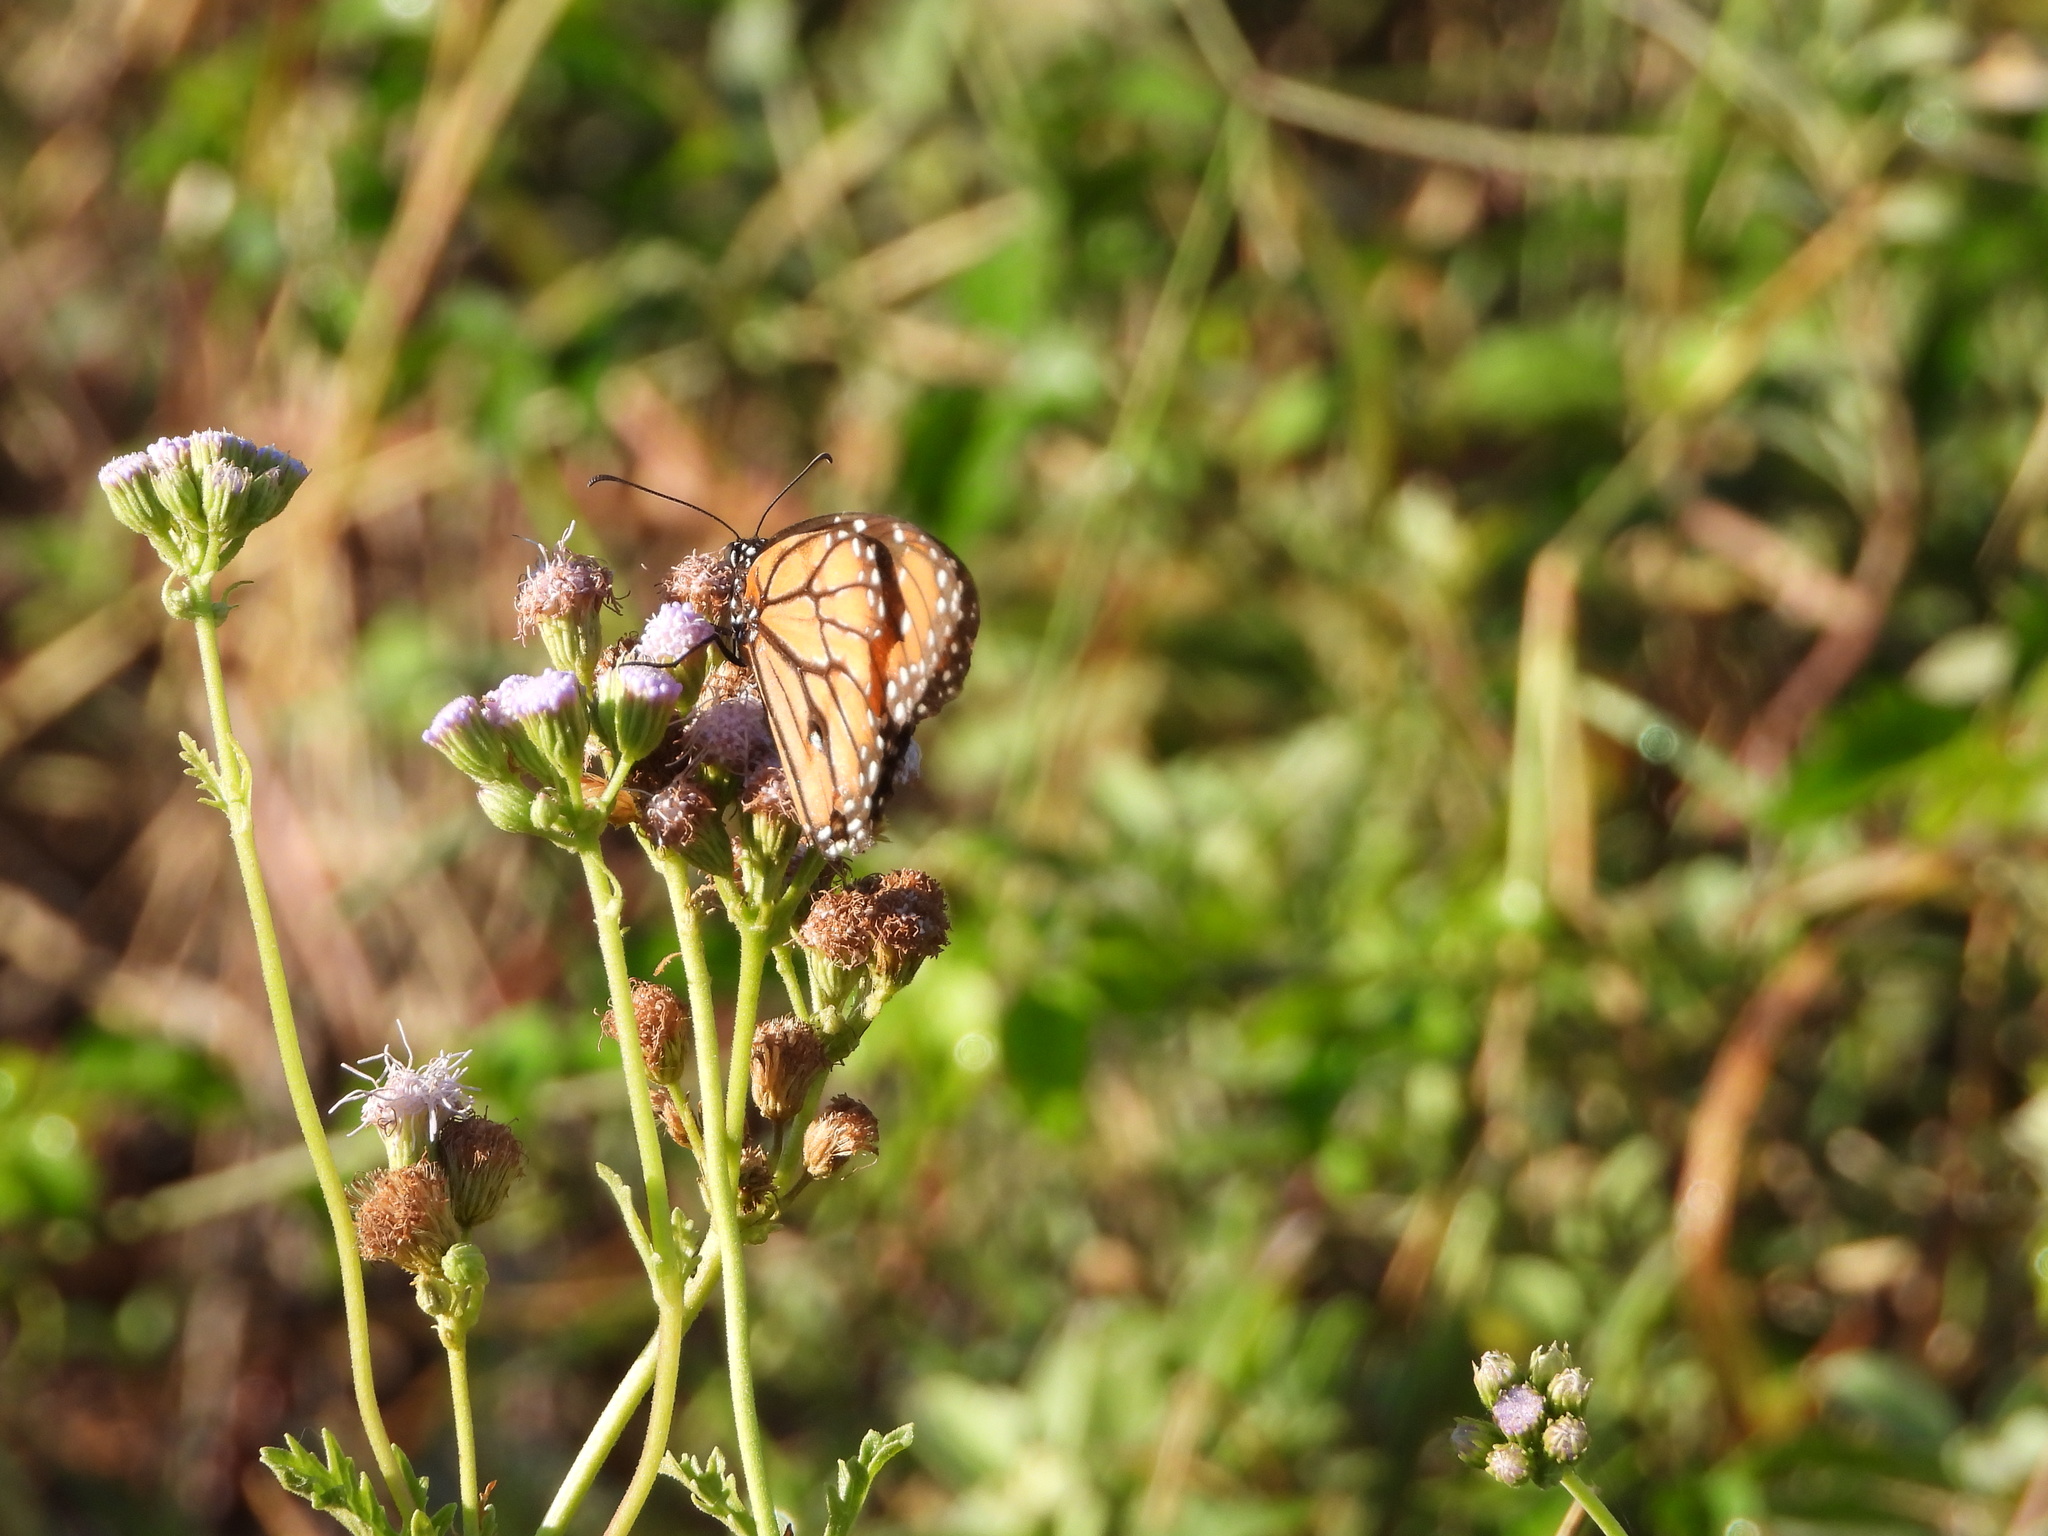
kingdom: Animalia
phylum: Arthropoda
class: Insecta
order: Lepidoptera
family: Nymphalidae
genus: Danaus
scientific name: Danaus eresimus
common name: Soldier
